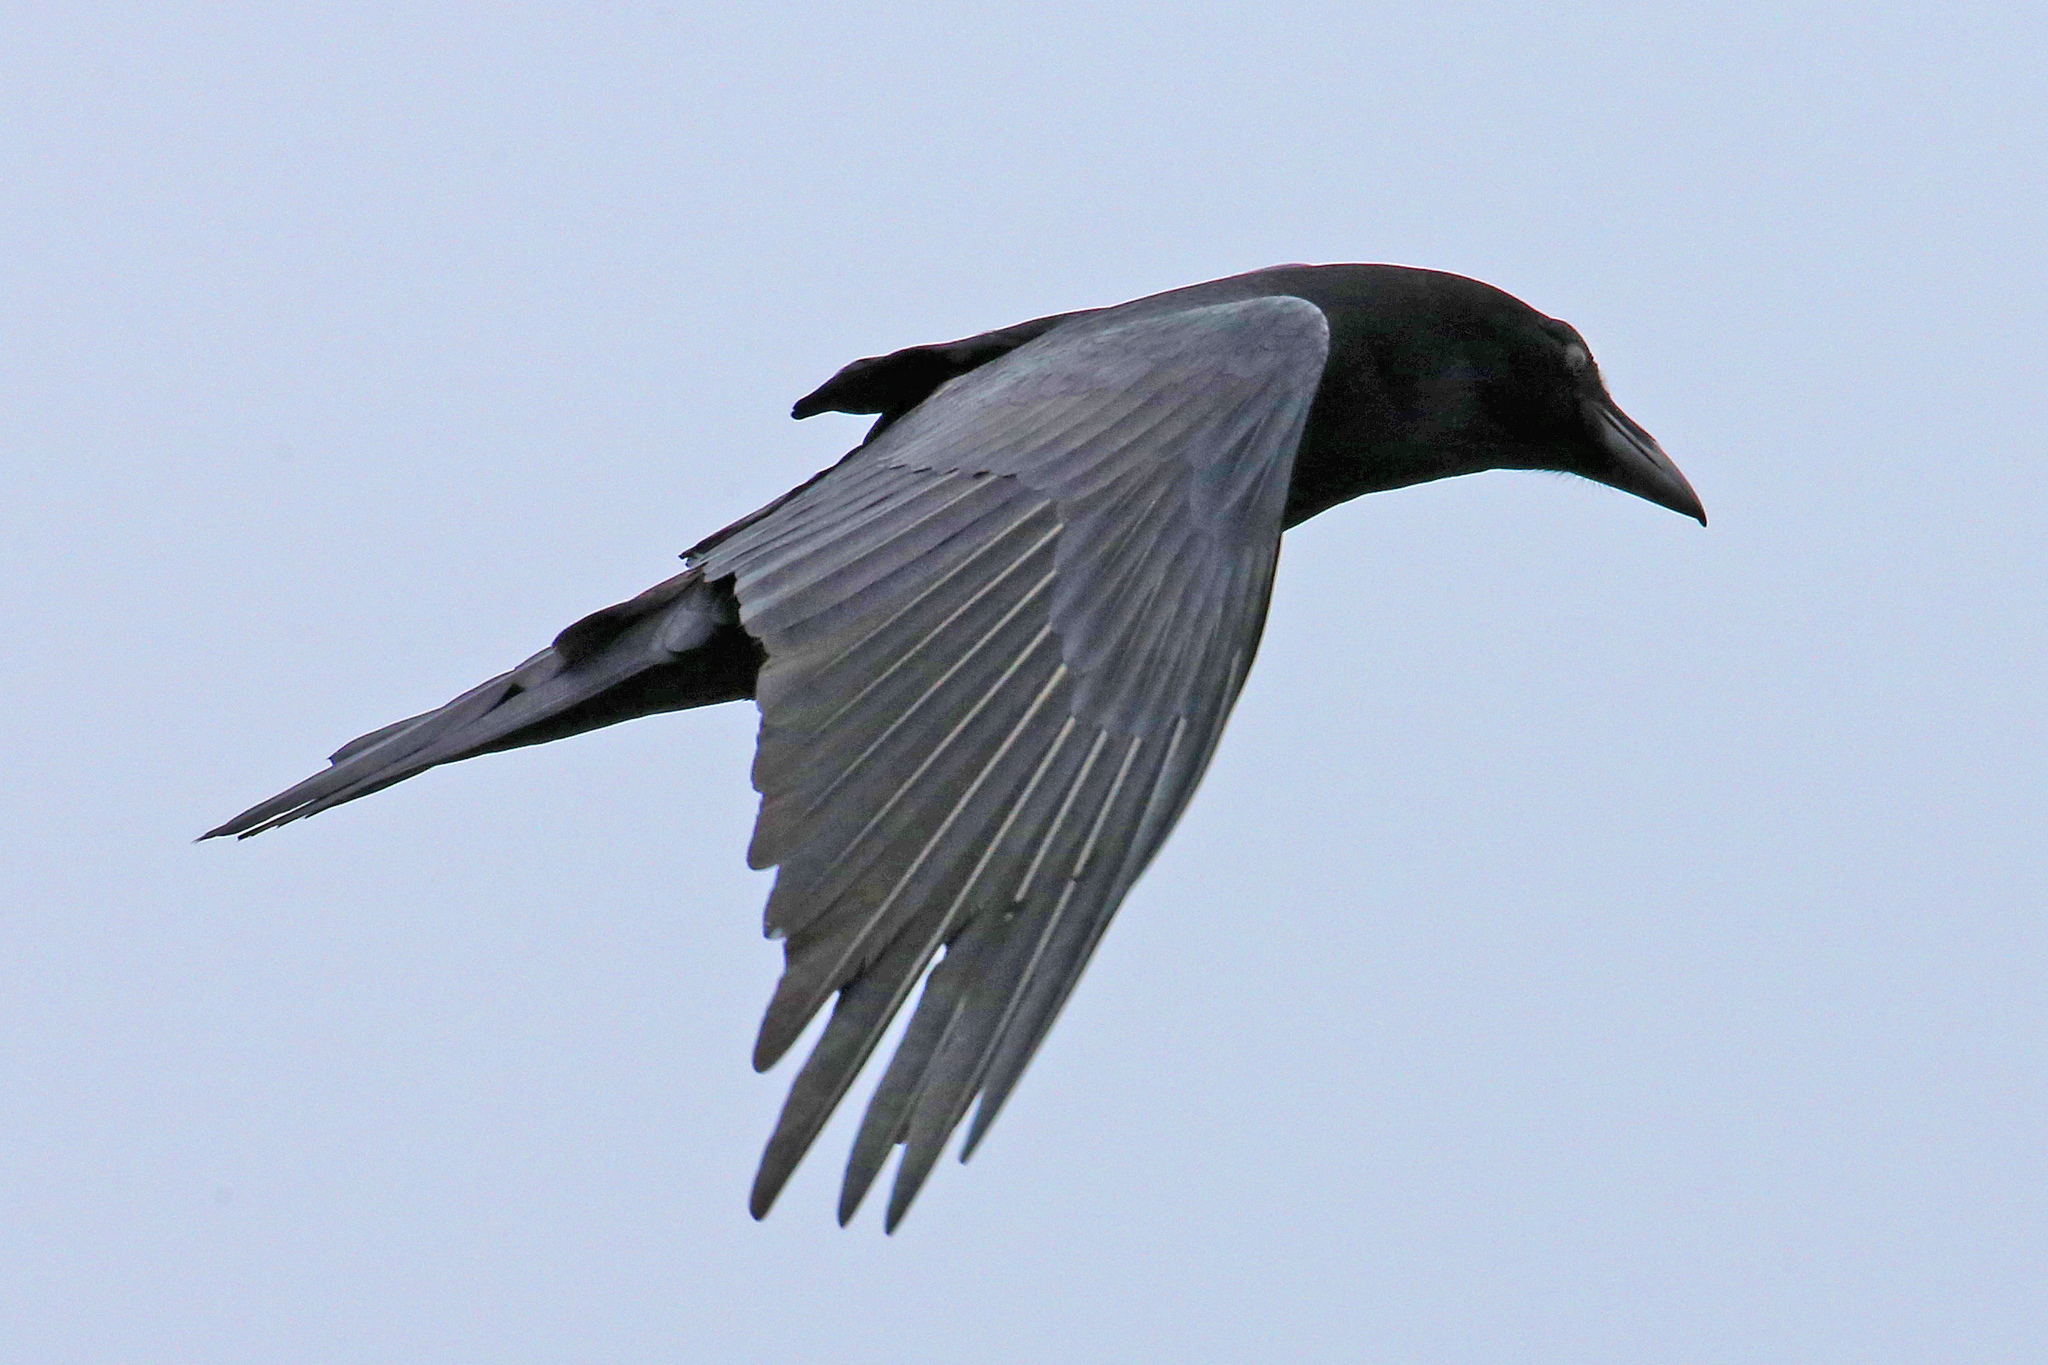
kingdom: Animalia
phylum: Chordata
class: Aves
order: Passeriformes
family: Corvidae
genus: Corvus
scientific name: Corvus corax
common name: Common raven
